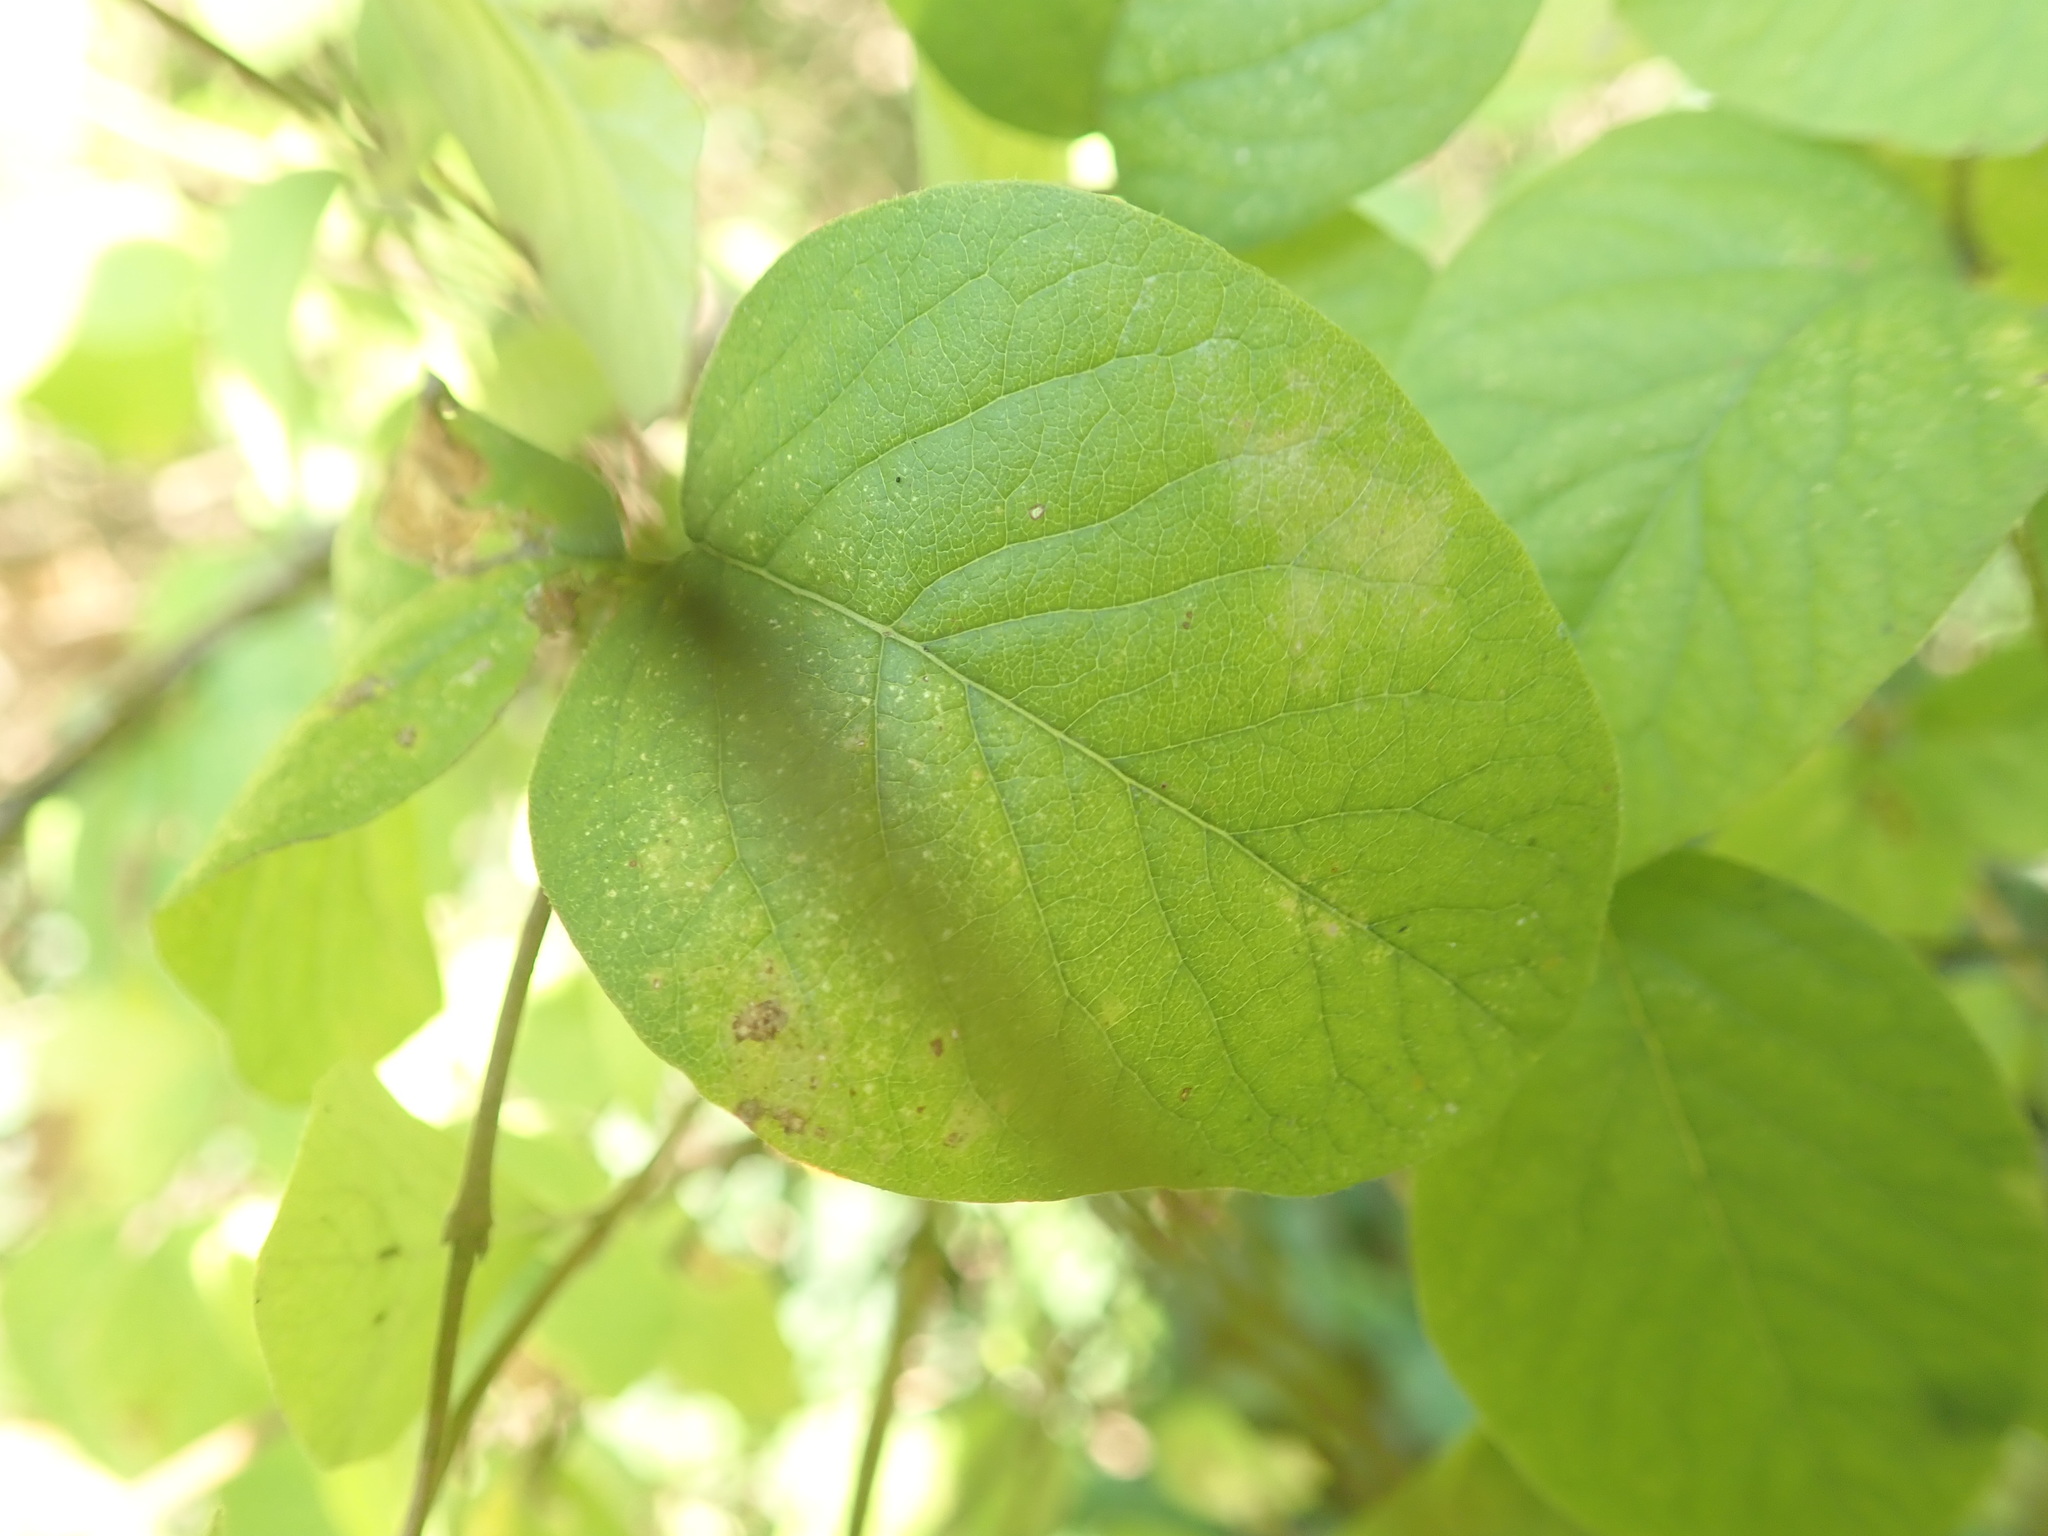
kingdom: Plantae
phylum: Tracheophyta
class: Magnoliopsida
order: Dipsacales
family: Caprifoliaceae
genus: Symphoricarpos
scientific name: Symphoricarpos orbiculatus
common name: Coralberry
